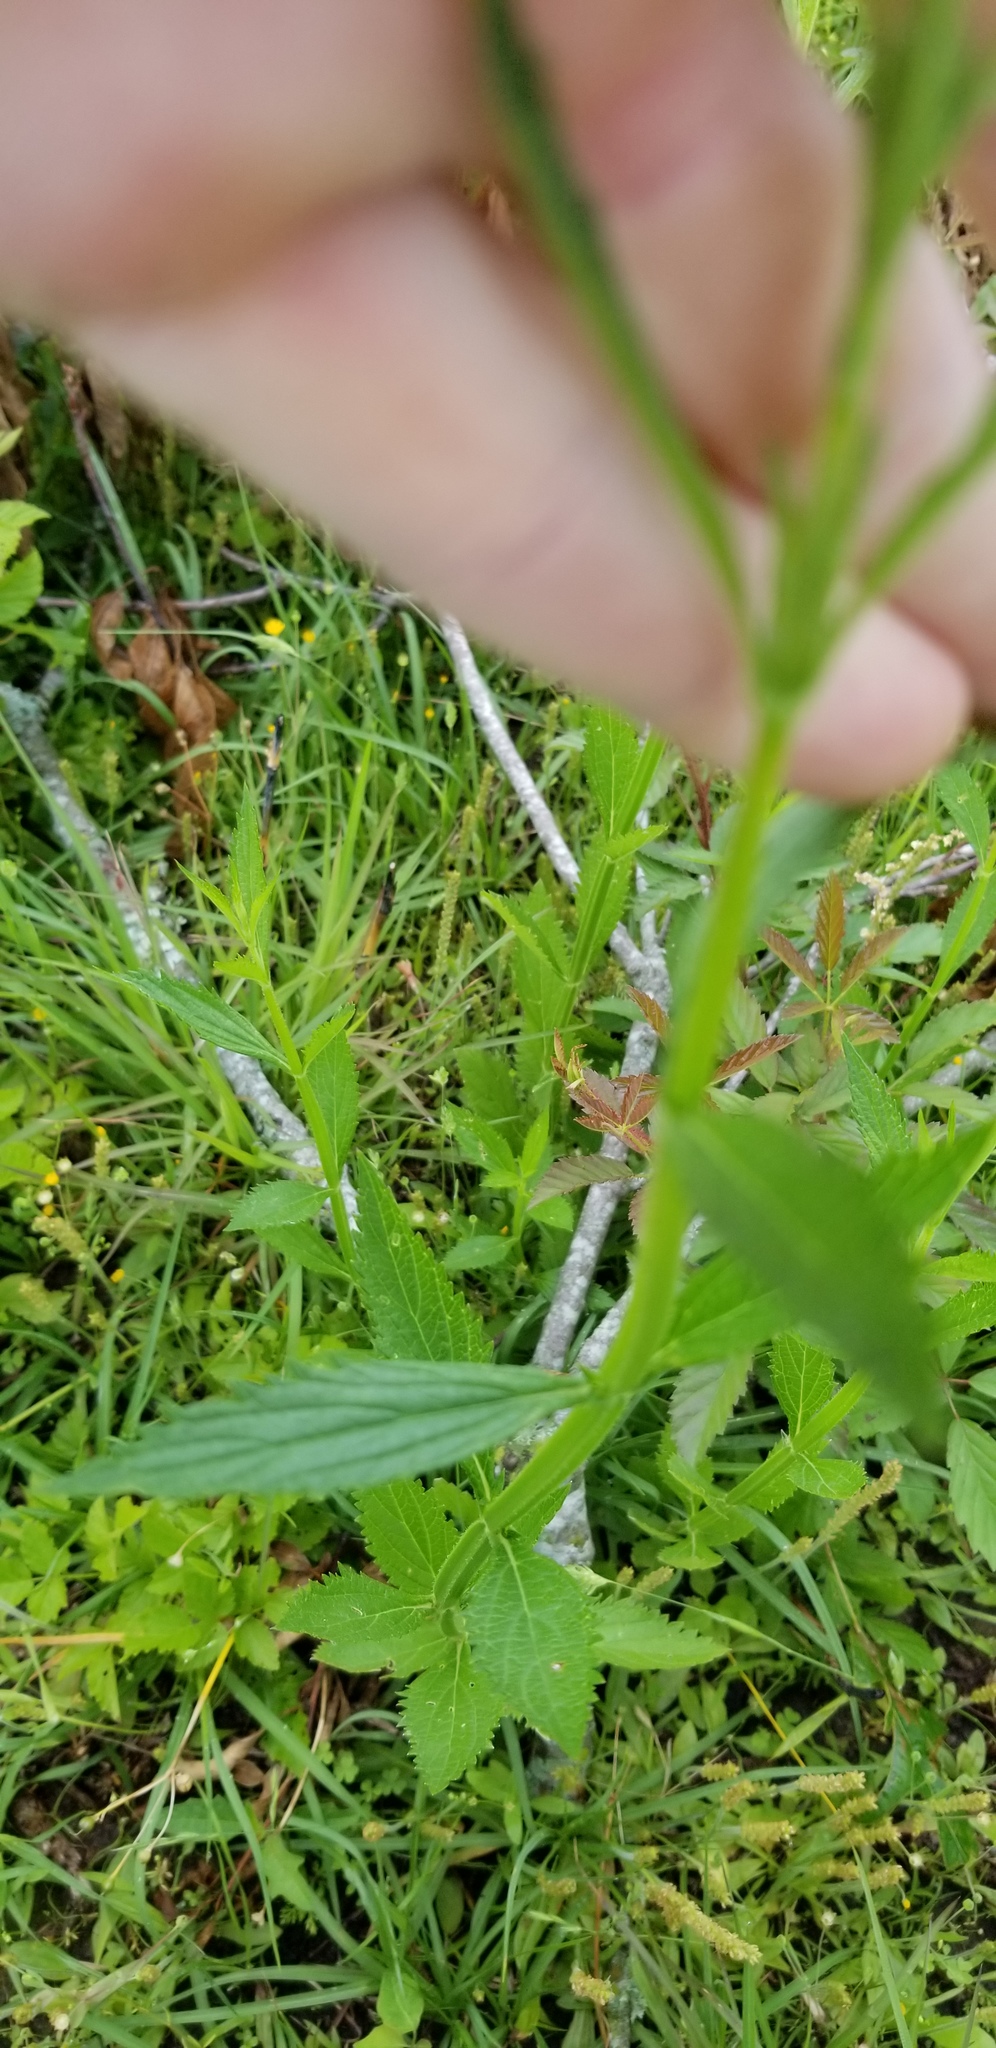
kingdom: Plantae
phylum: Tracheophyta
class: Magnoliopsida
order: Lamiales
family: Verbenaceae
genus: Verbena
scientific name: Verbena brasiliensis
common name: Brazilian vervain
